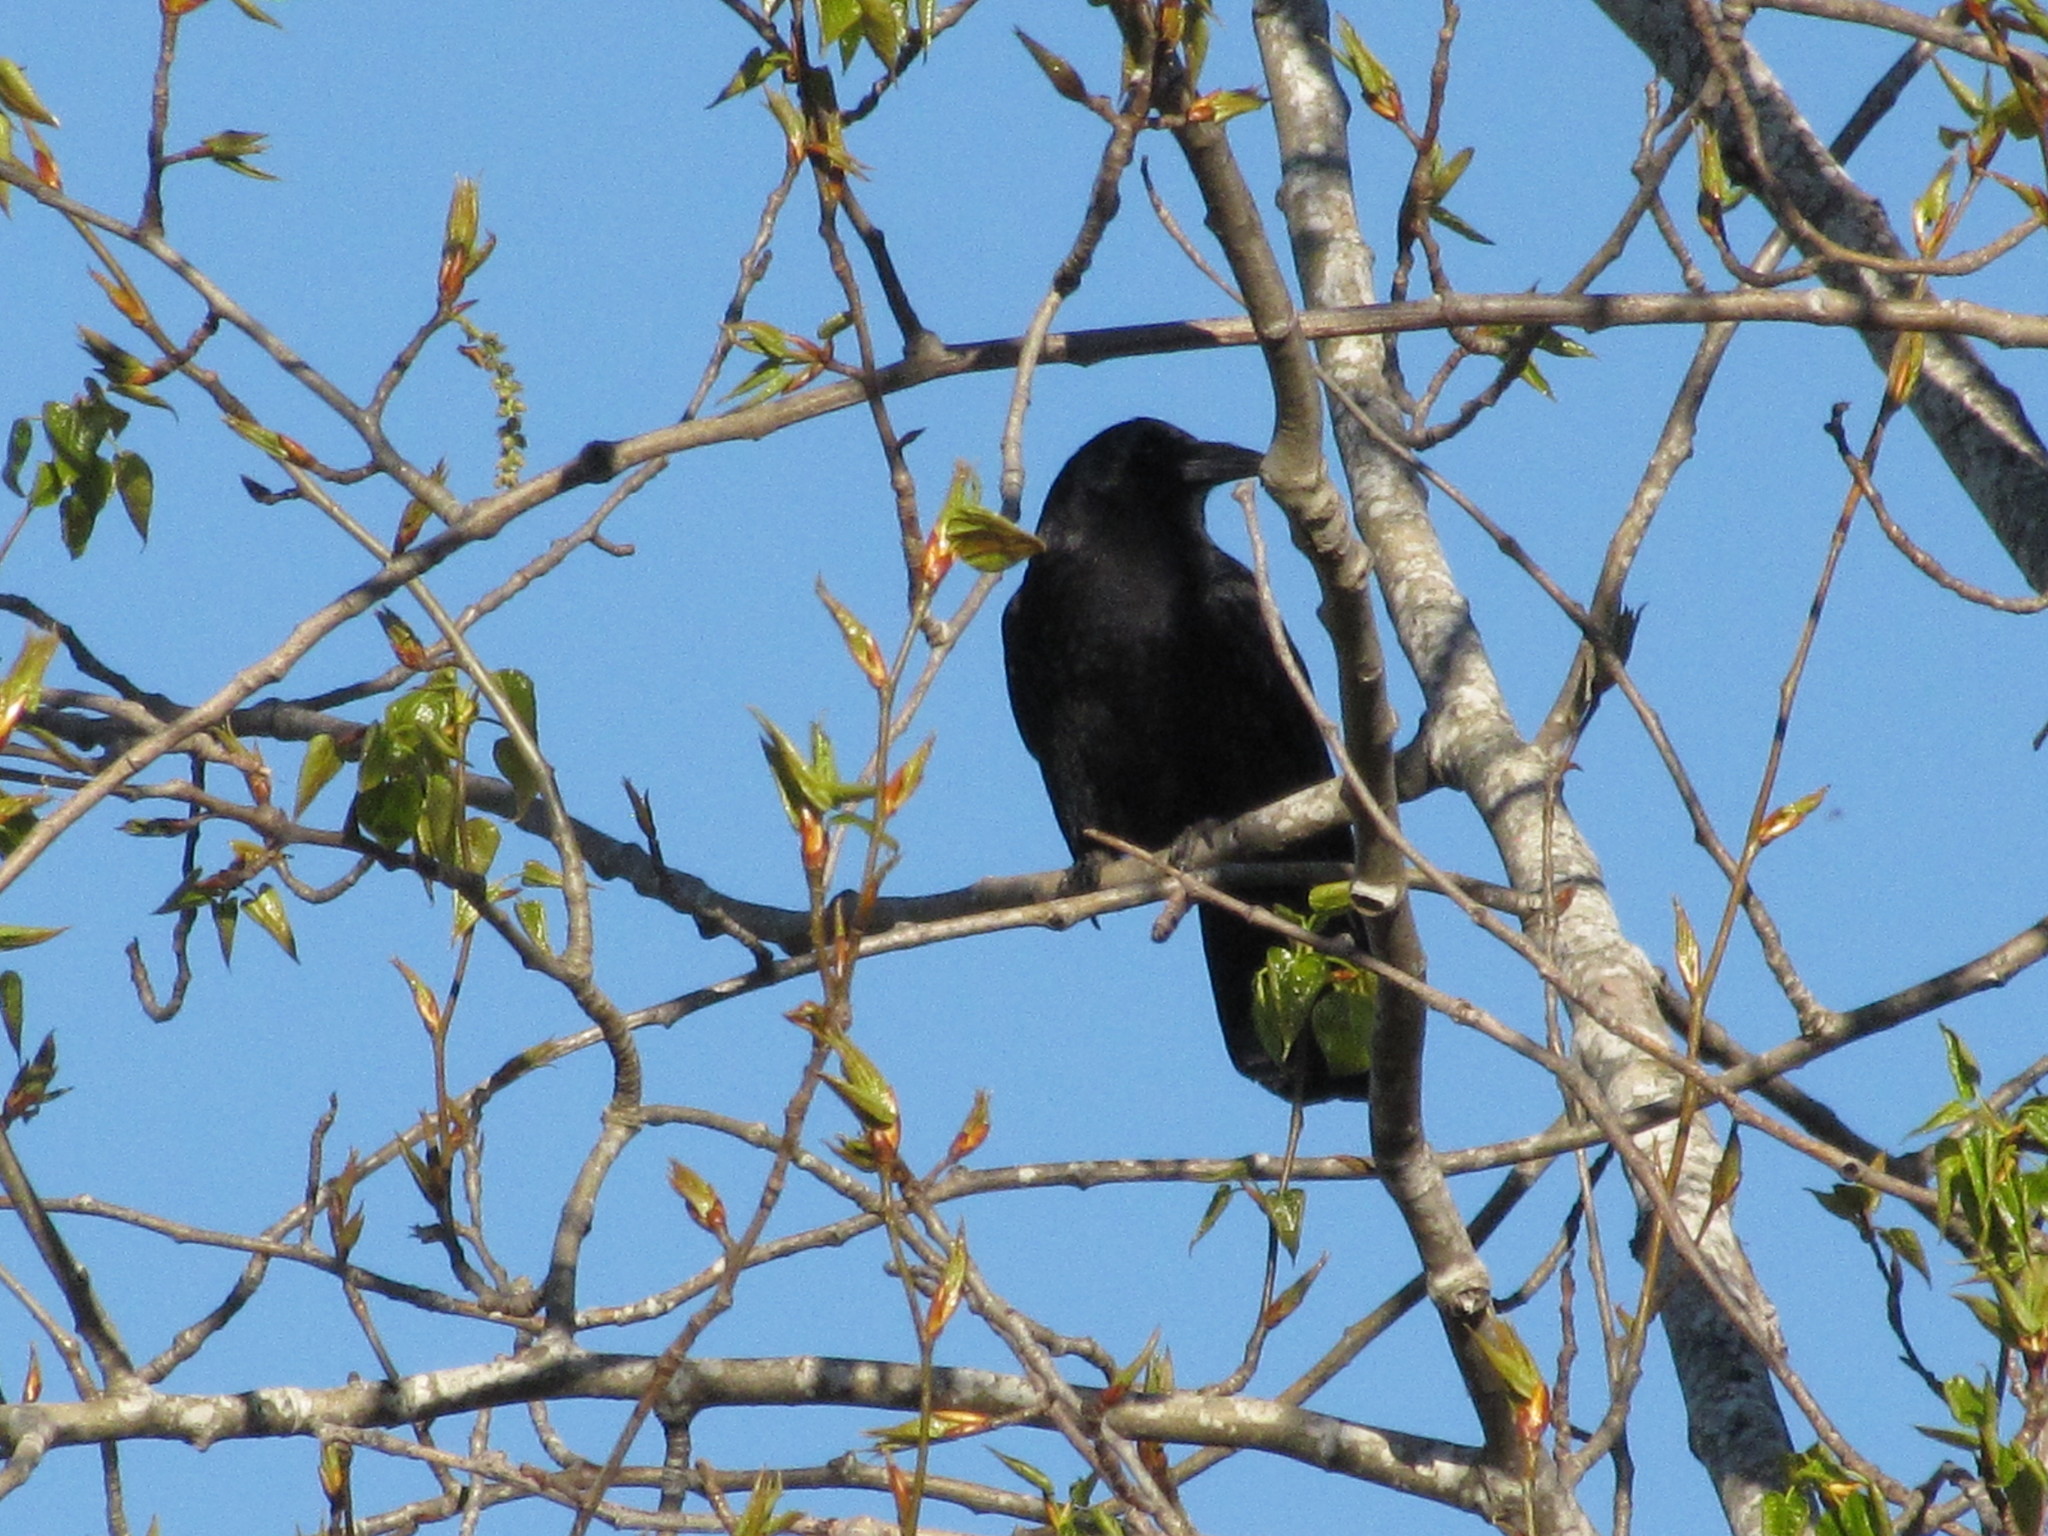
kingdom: Animalia
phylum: Chordata
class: Aves
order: Passeriformes
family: Corvidae
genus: Corvus
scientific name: Corvus brachyrhynchos
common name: American crow
